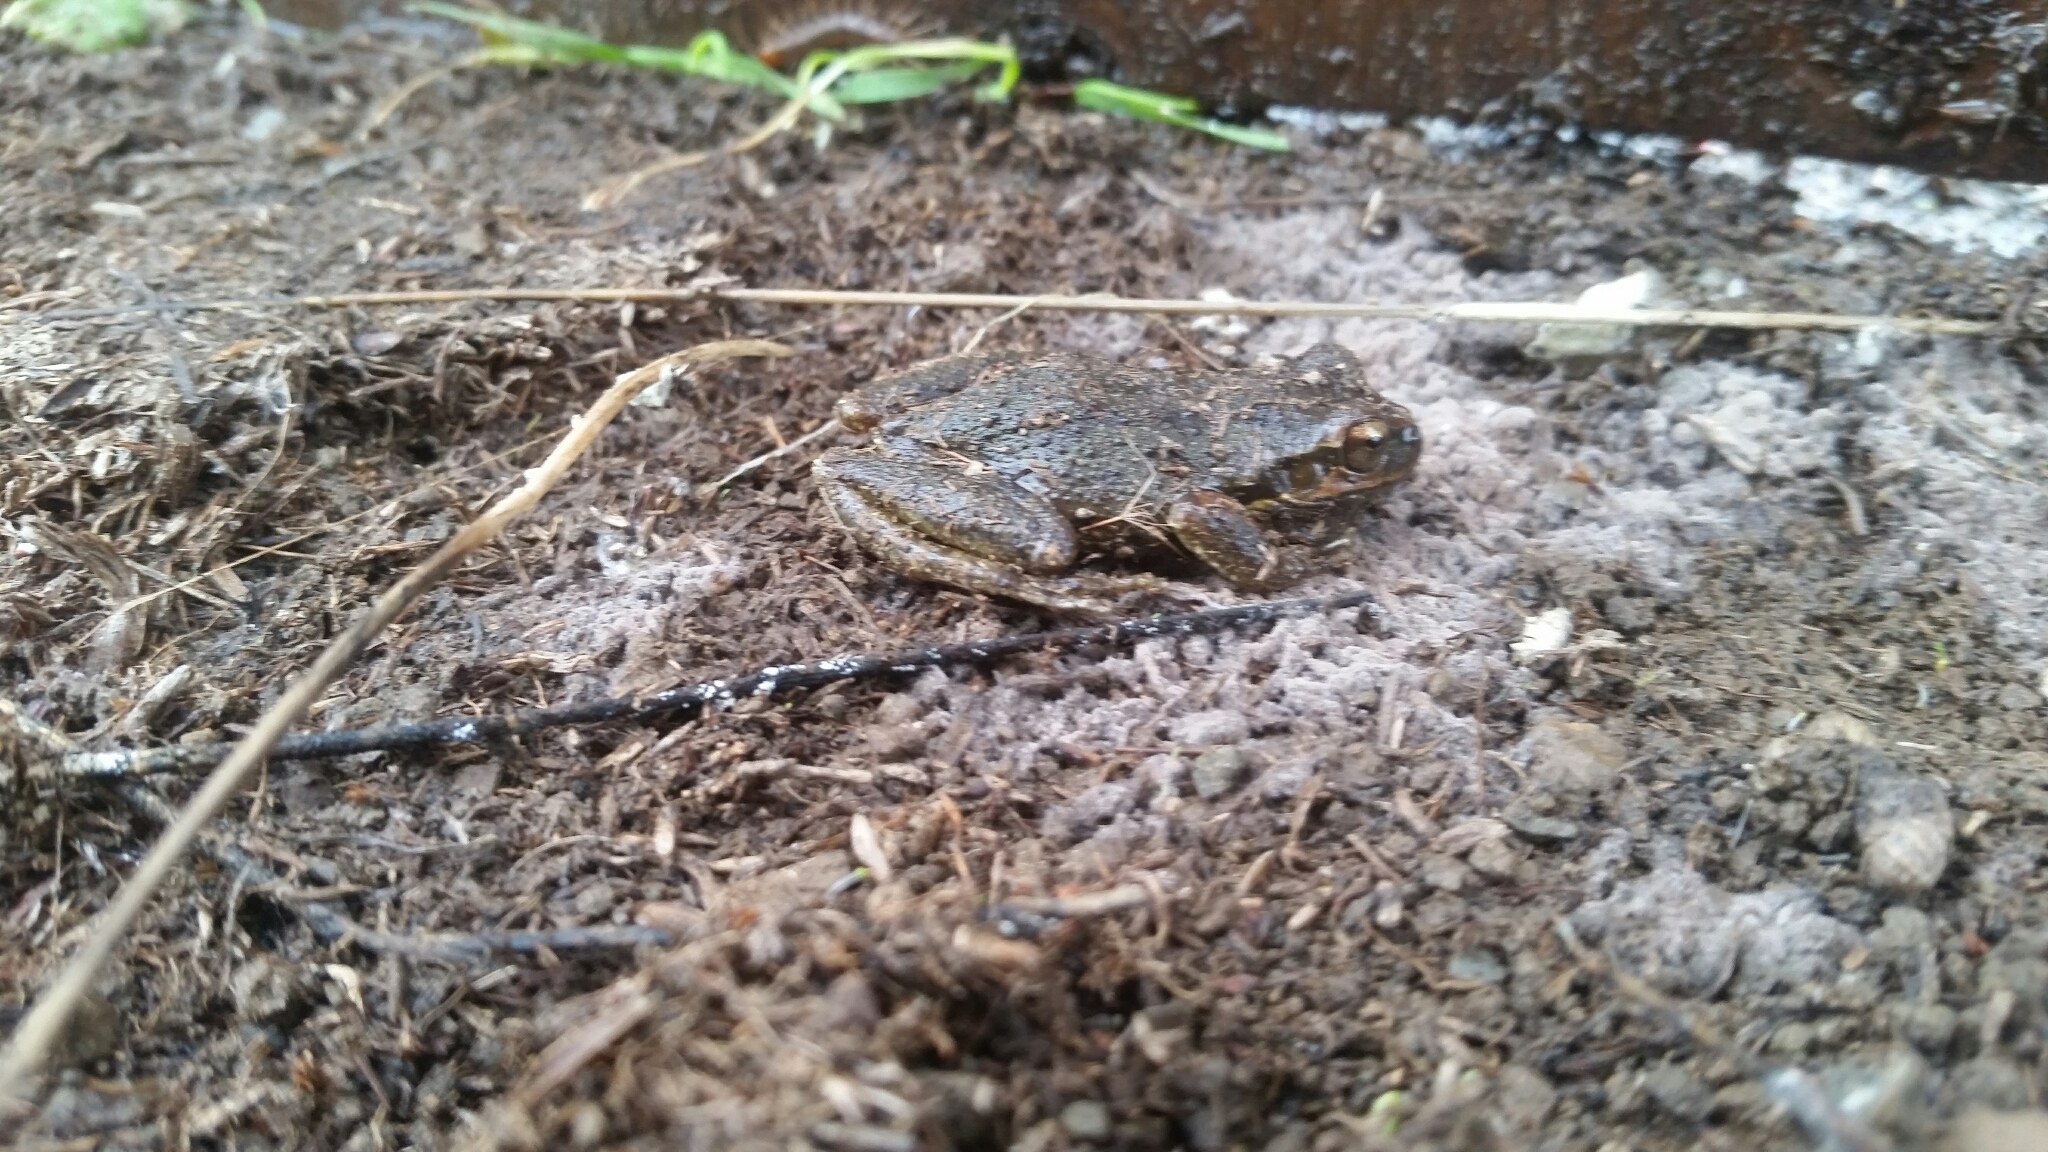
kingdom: Animalia
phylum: Chordata
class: Amphibia
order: Anura
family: Hylidae
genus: Pseudacris
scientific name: Pseudacris regilla
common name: Pacific chorus frog
